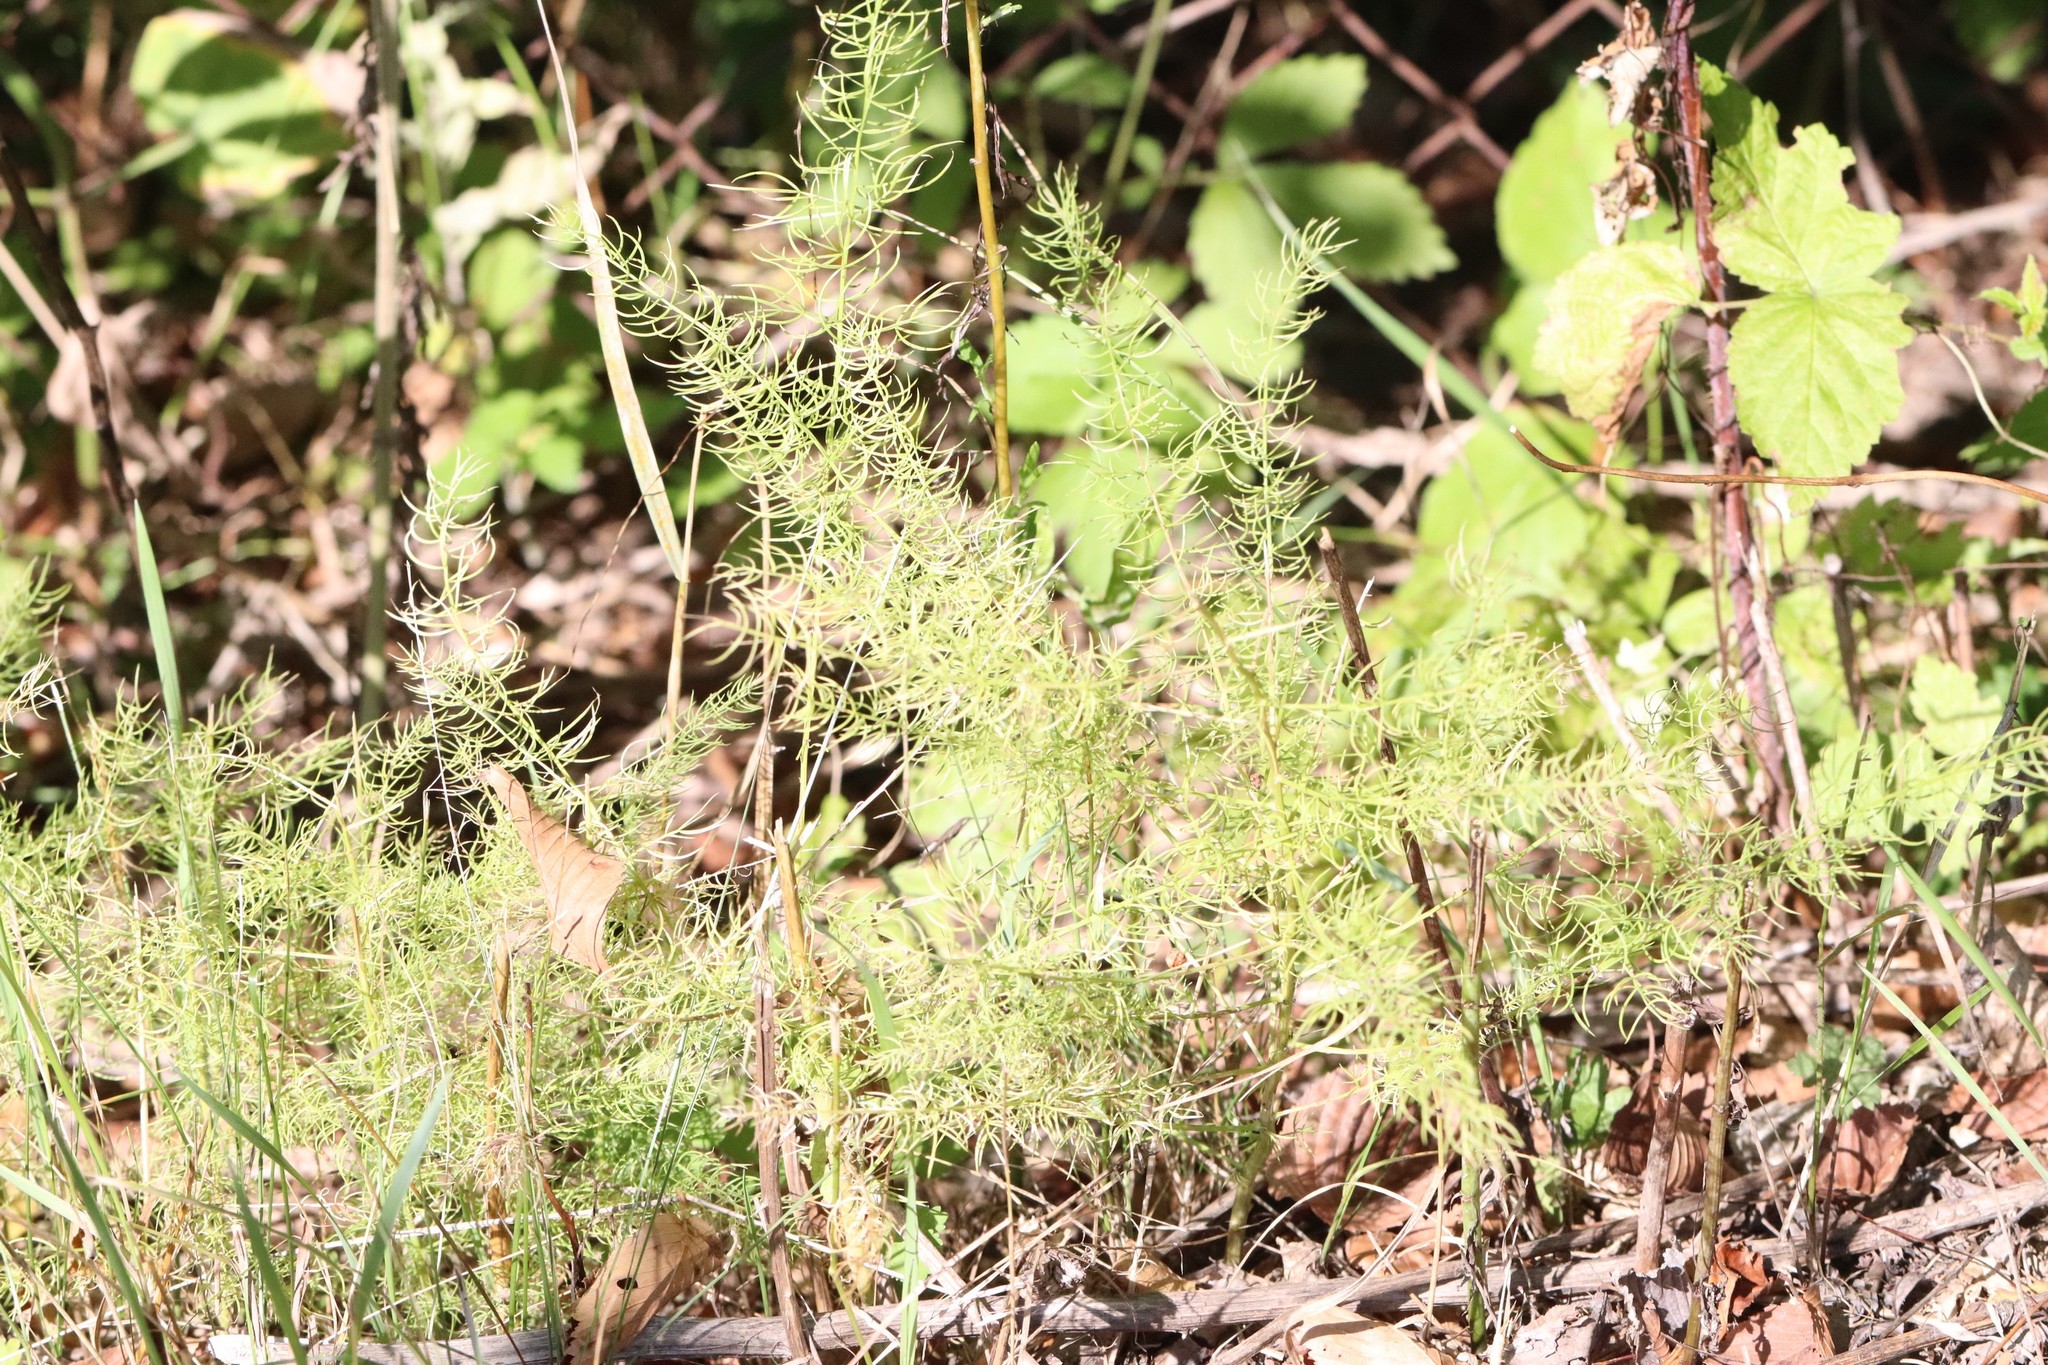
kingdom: Plantae
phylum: Tracheophyta
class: Liliopsida
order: Asparagales
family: Asparagaceae
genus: Asparagus
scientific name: Asparagus schoberioides
